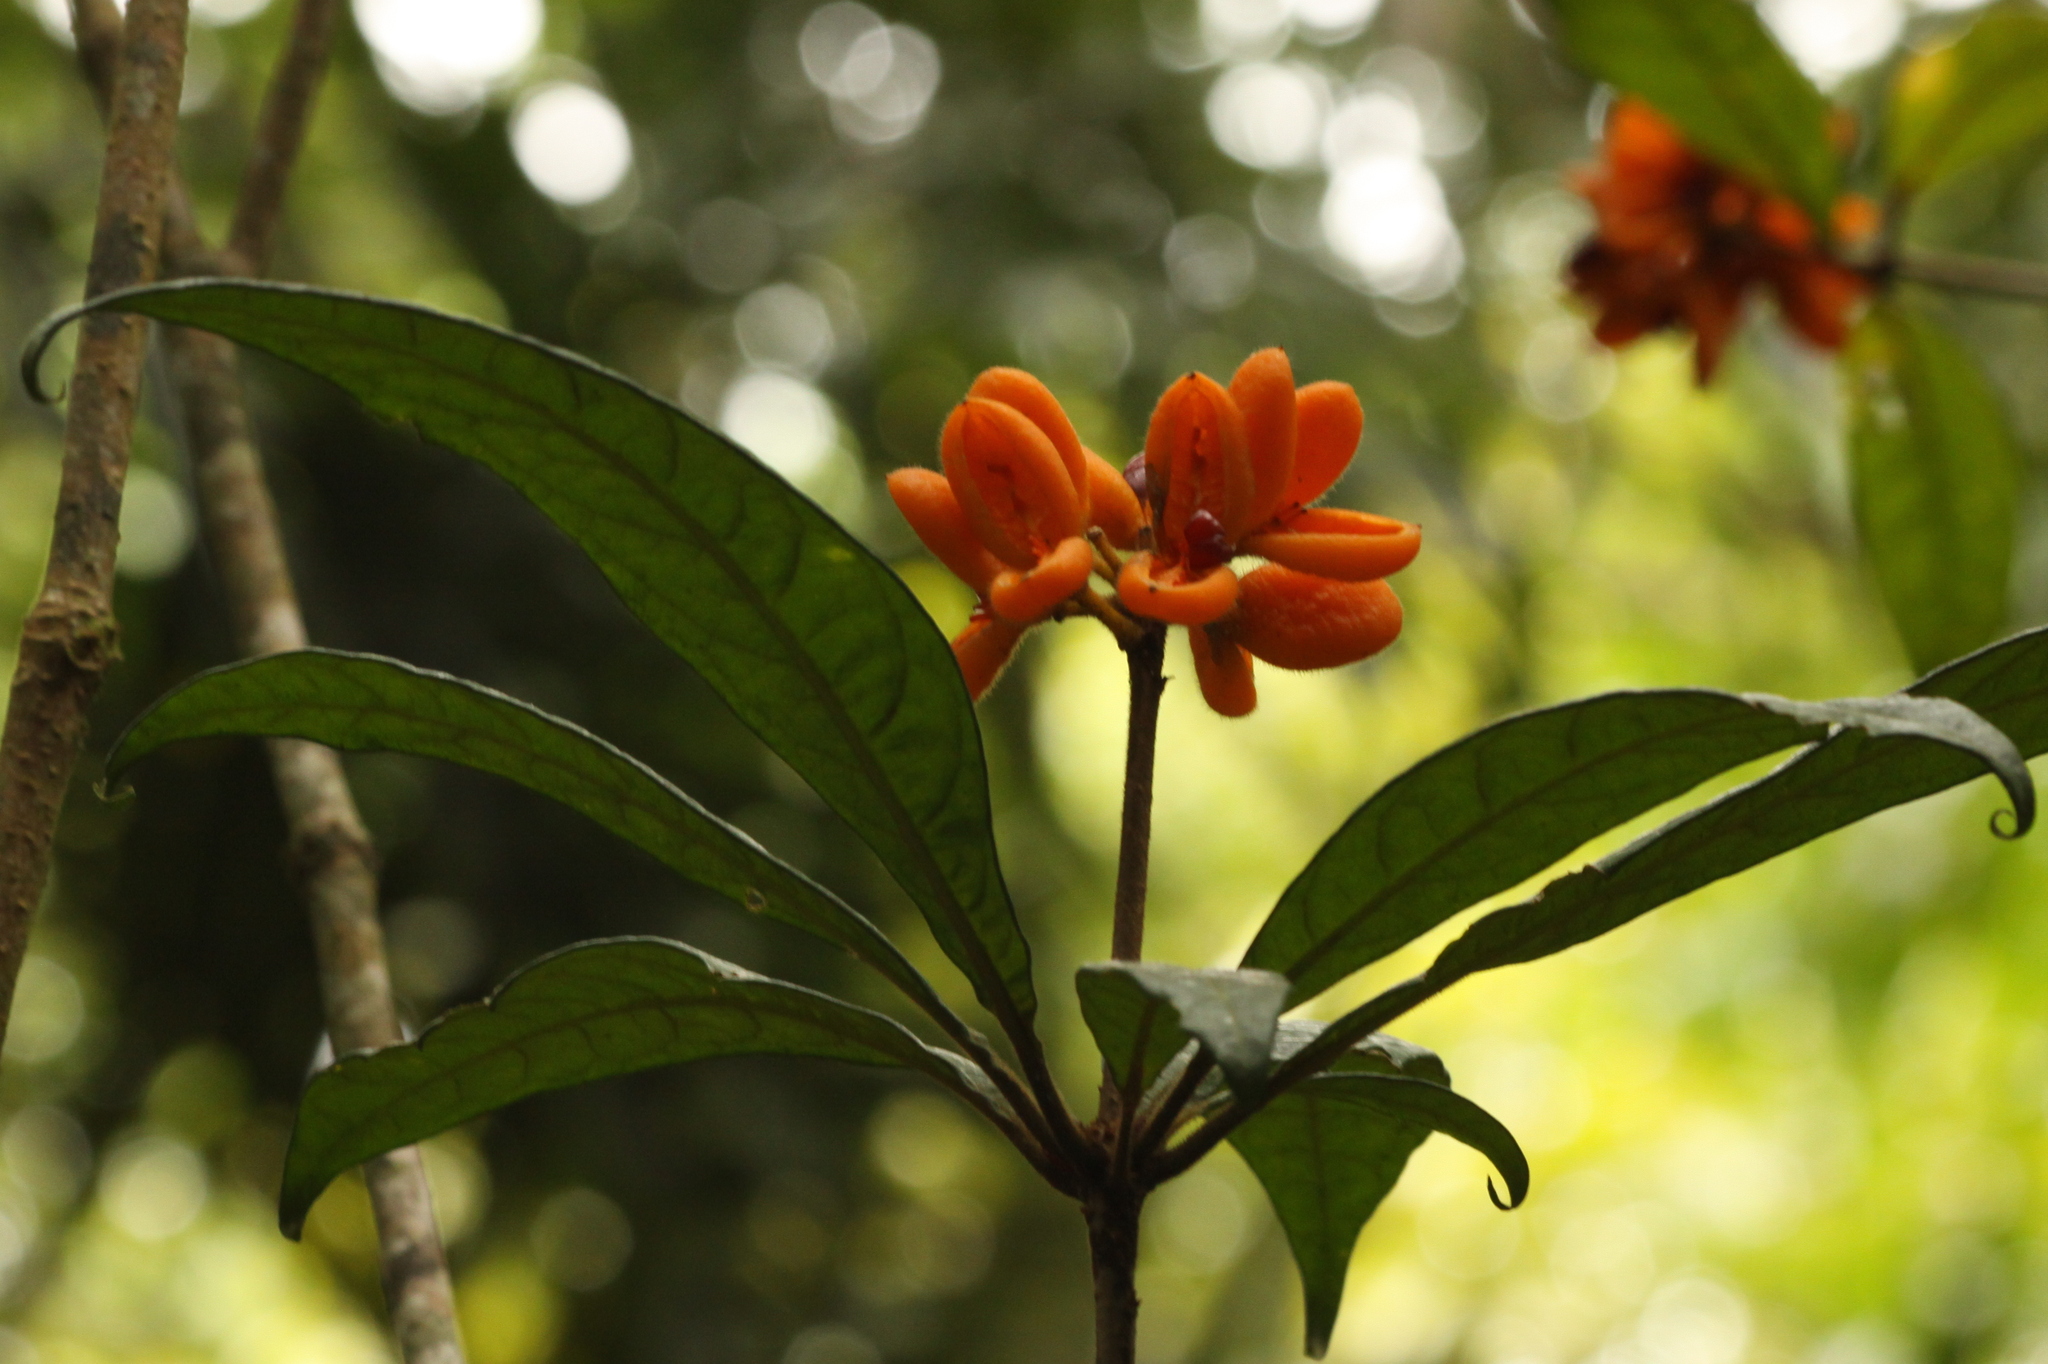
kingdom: Plantae
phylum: Tracheophyta
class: Magnoliopsida
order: Apiales
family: Pittosporaceae
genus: Pittosporum
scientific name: Pittosporum rubiginosum
